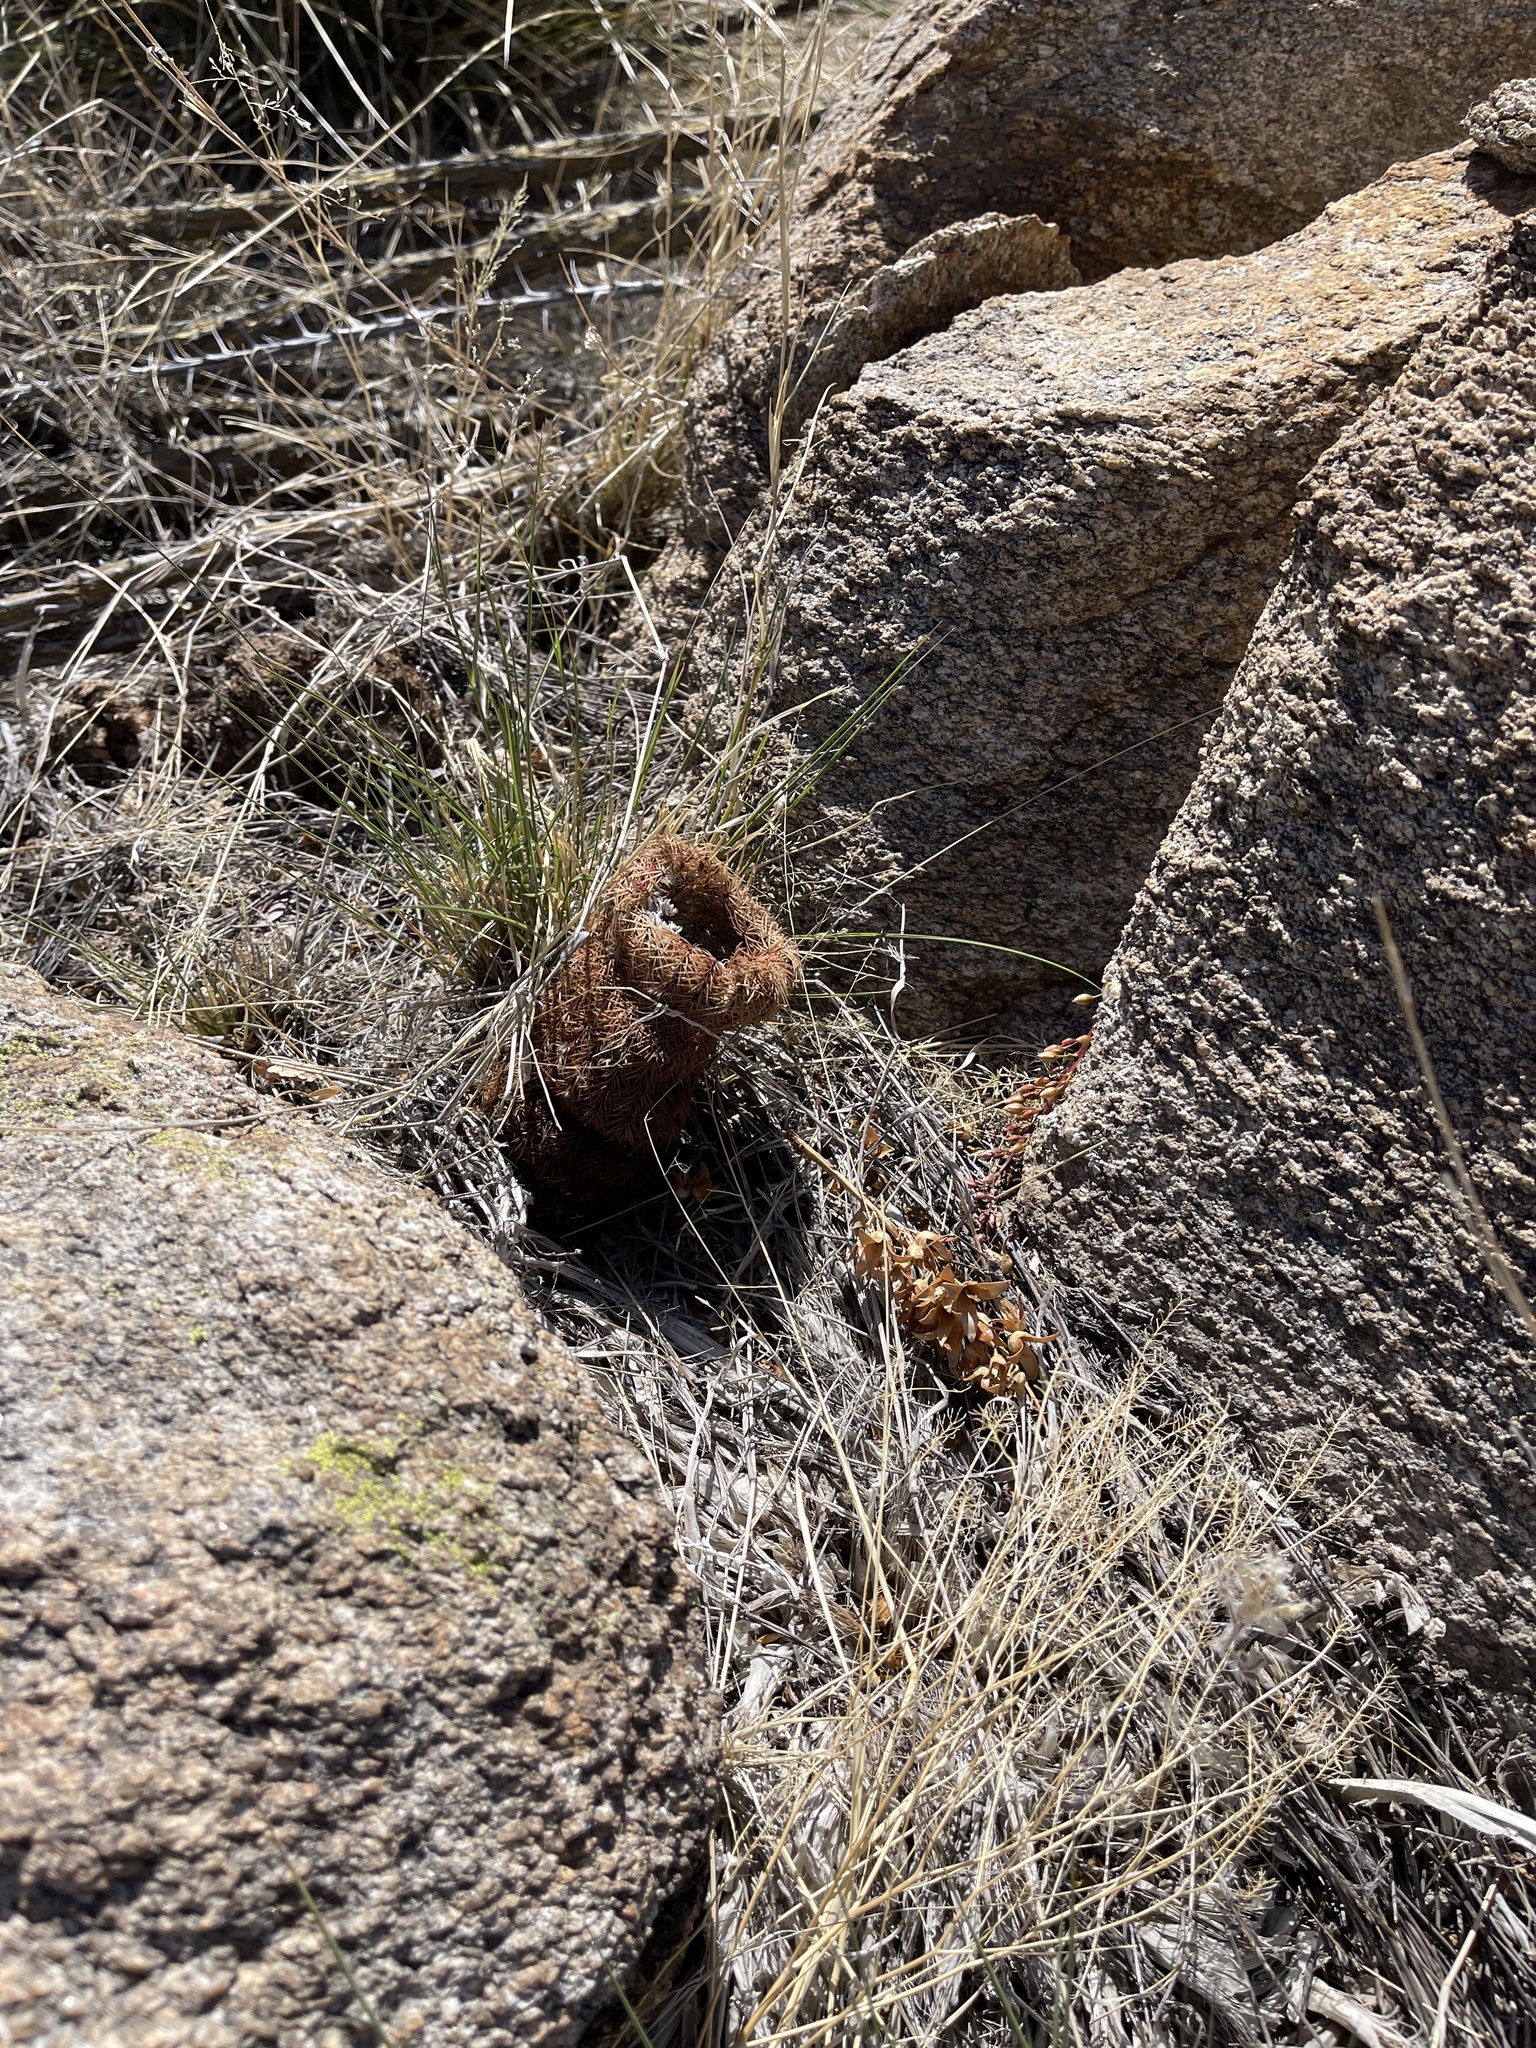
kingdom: Plantae
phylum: Tracheophyta
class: Magnoliopsida
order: Caryophyllales
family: Cactaceae
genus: Echinocereus
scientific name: Echinocereus rigidissimus
